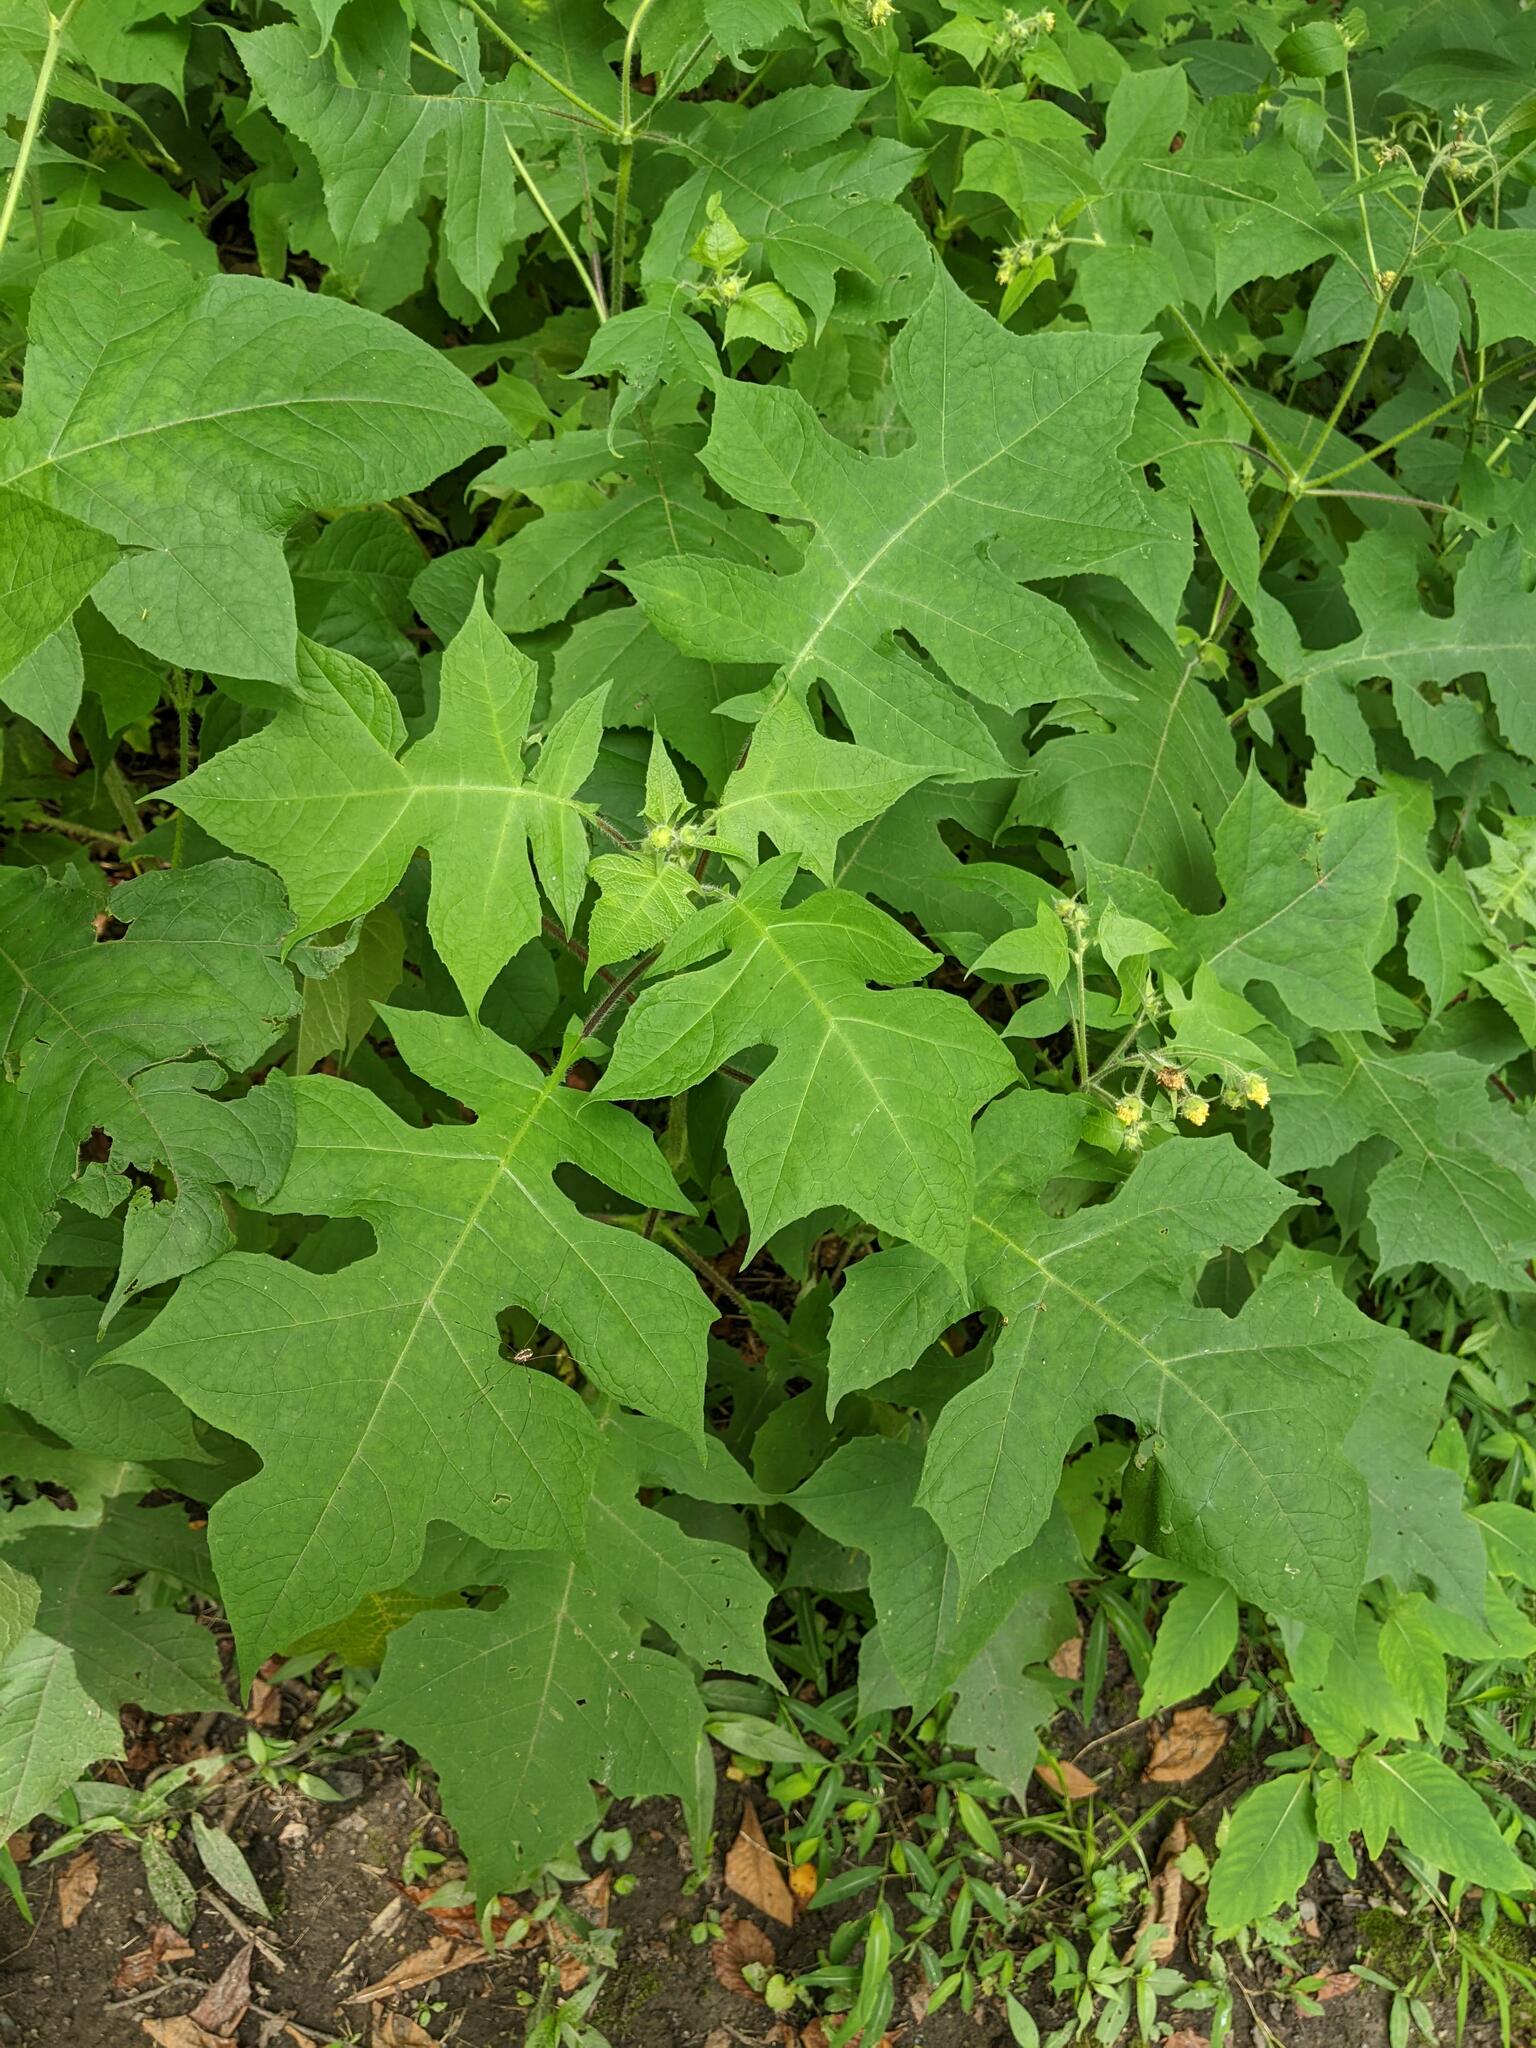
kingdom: Plantae
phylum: Tracheophyta
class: Magnoliopsida
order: Asterales
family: Asteraceae
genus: Polymnia
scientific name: Polymnia canadensis
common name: Pale-flowered leafcup
